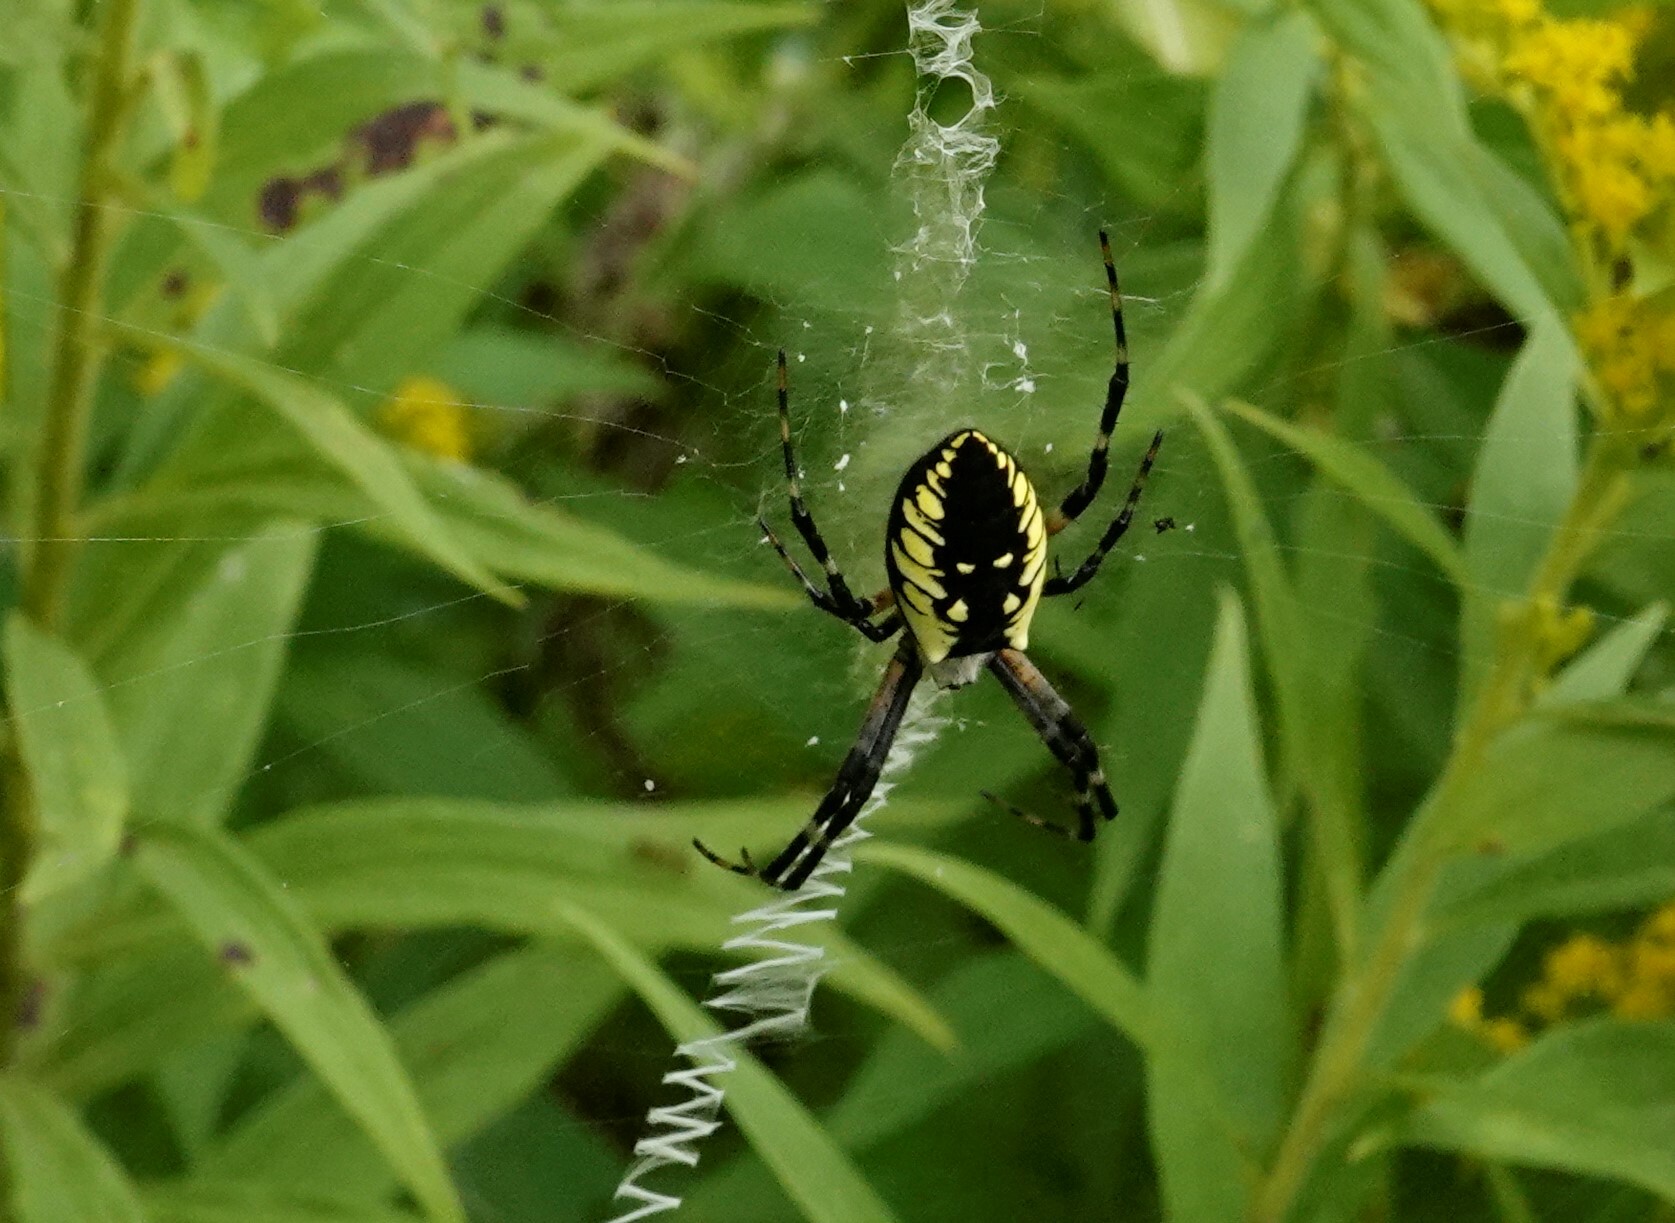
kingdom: Animalia
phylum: Arthropoda
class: Arachnida
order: Araneae
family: Araneidae
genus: Argiope
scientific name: Argiope aurantia
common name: Orb weavers
